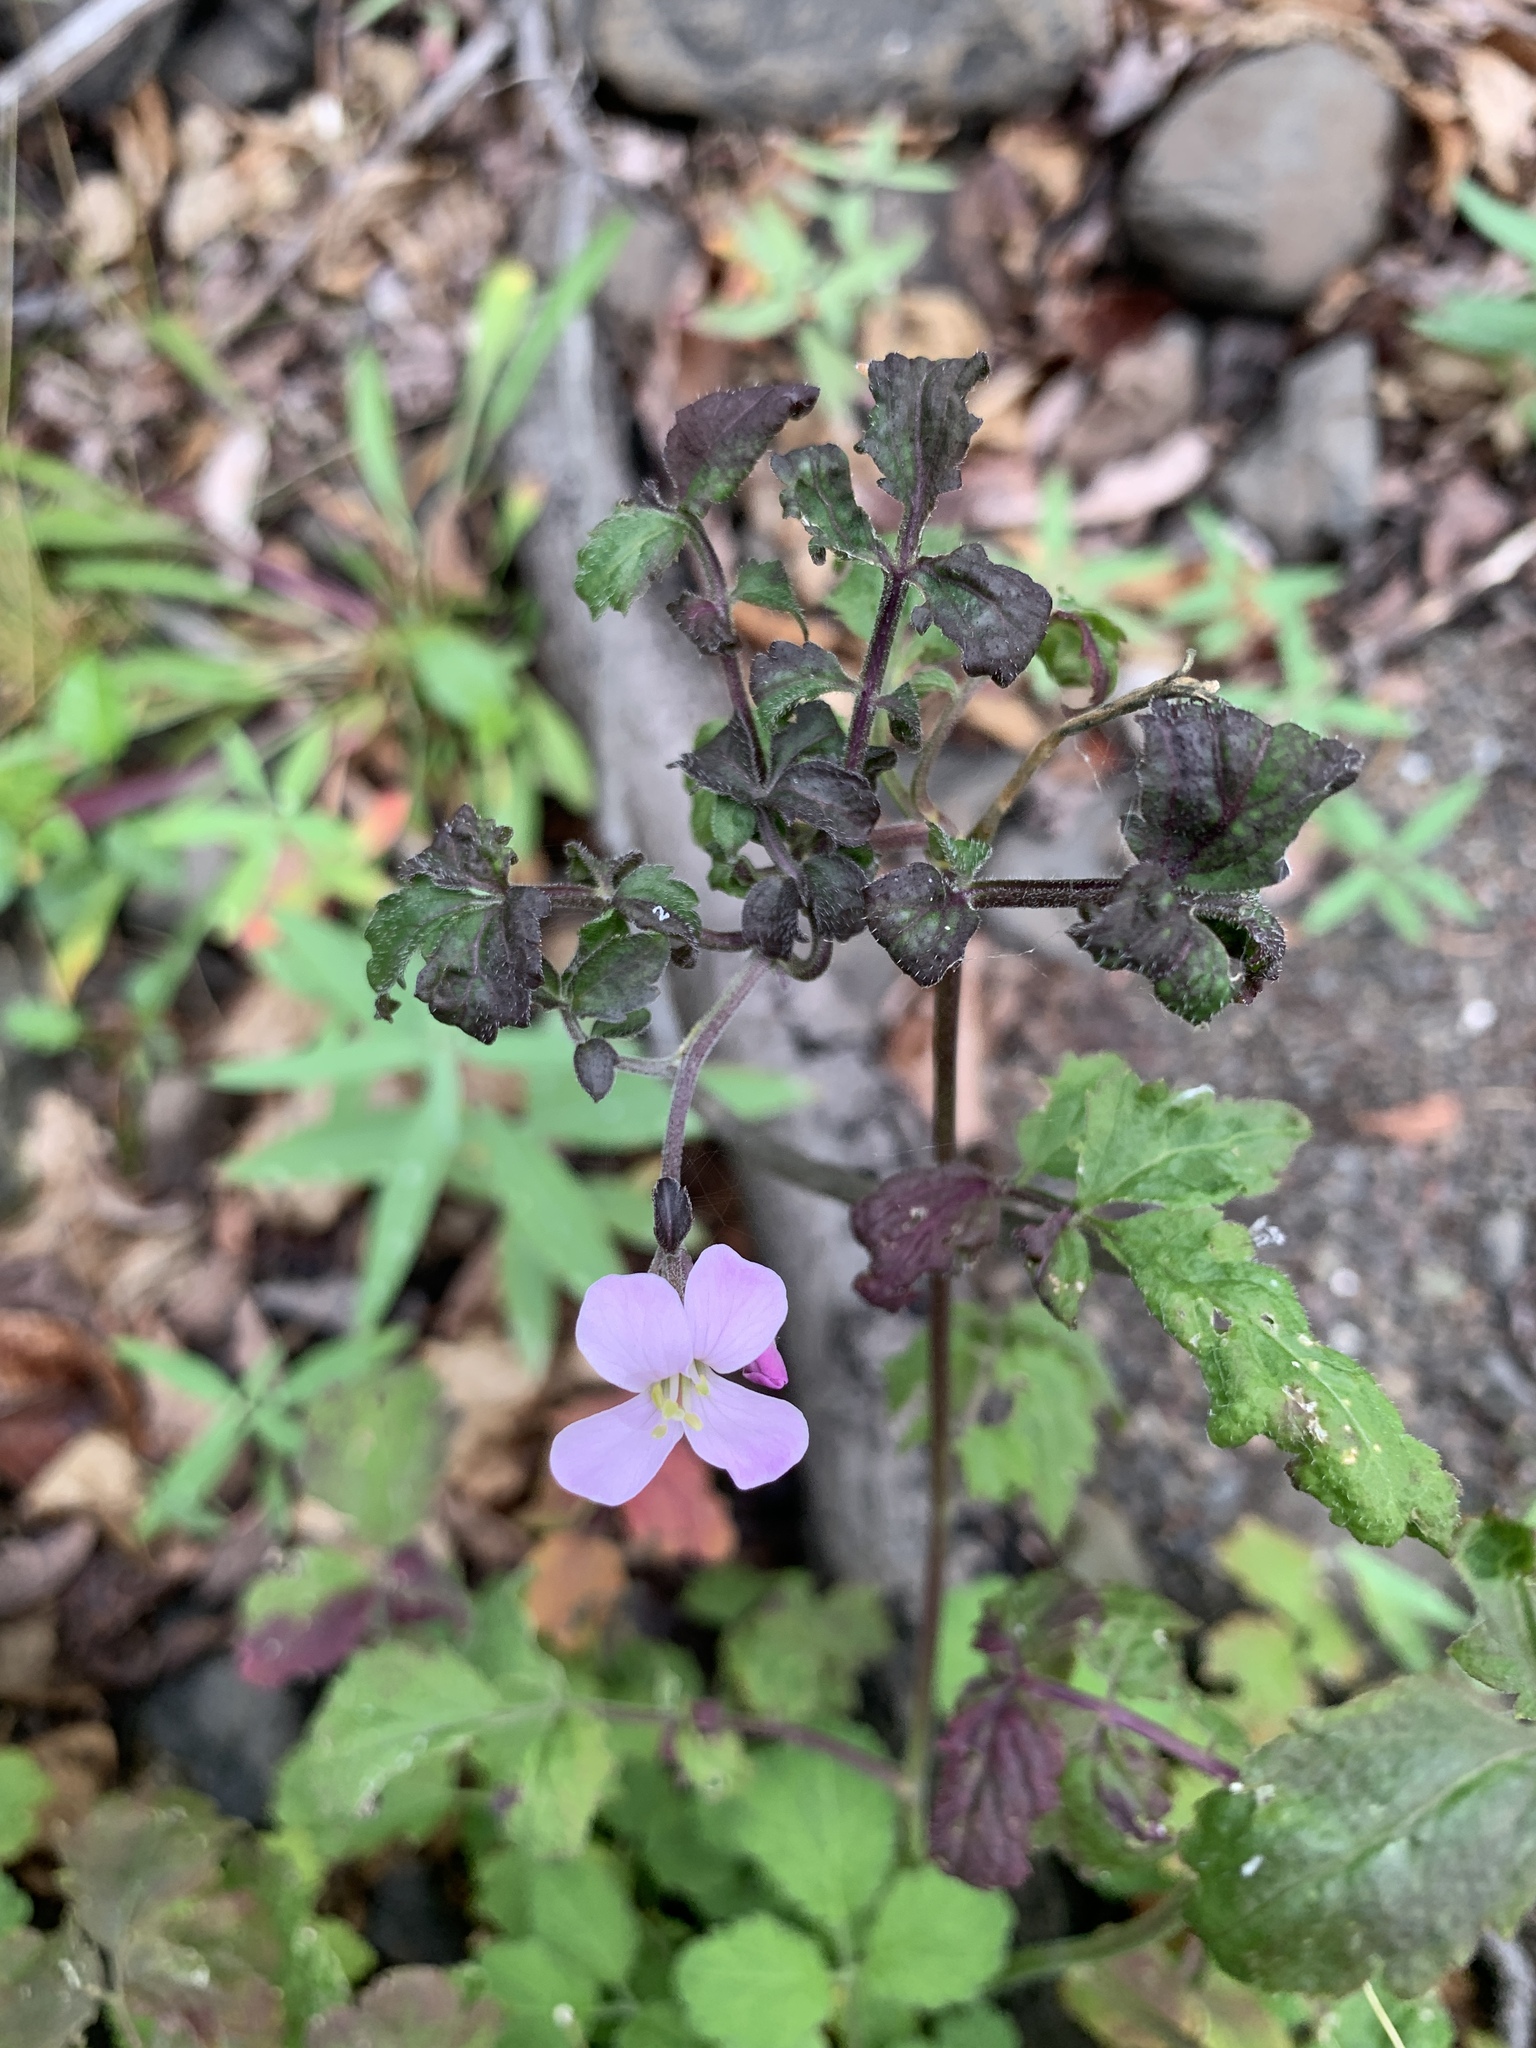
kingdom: Plantae
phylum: Tracheophyta
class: Magnoliopsida
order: Brassicales
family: Brassicaceae
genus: Cardamine
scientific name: Cardamine macrophylla
